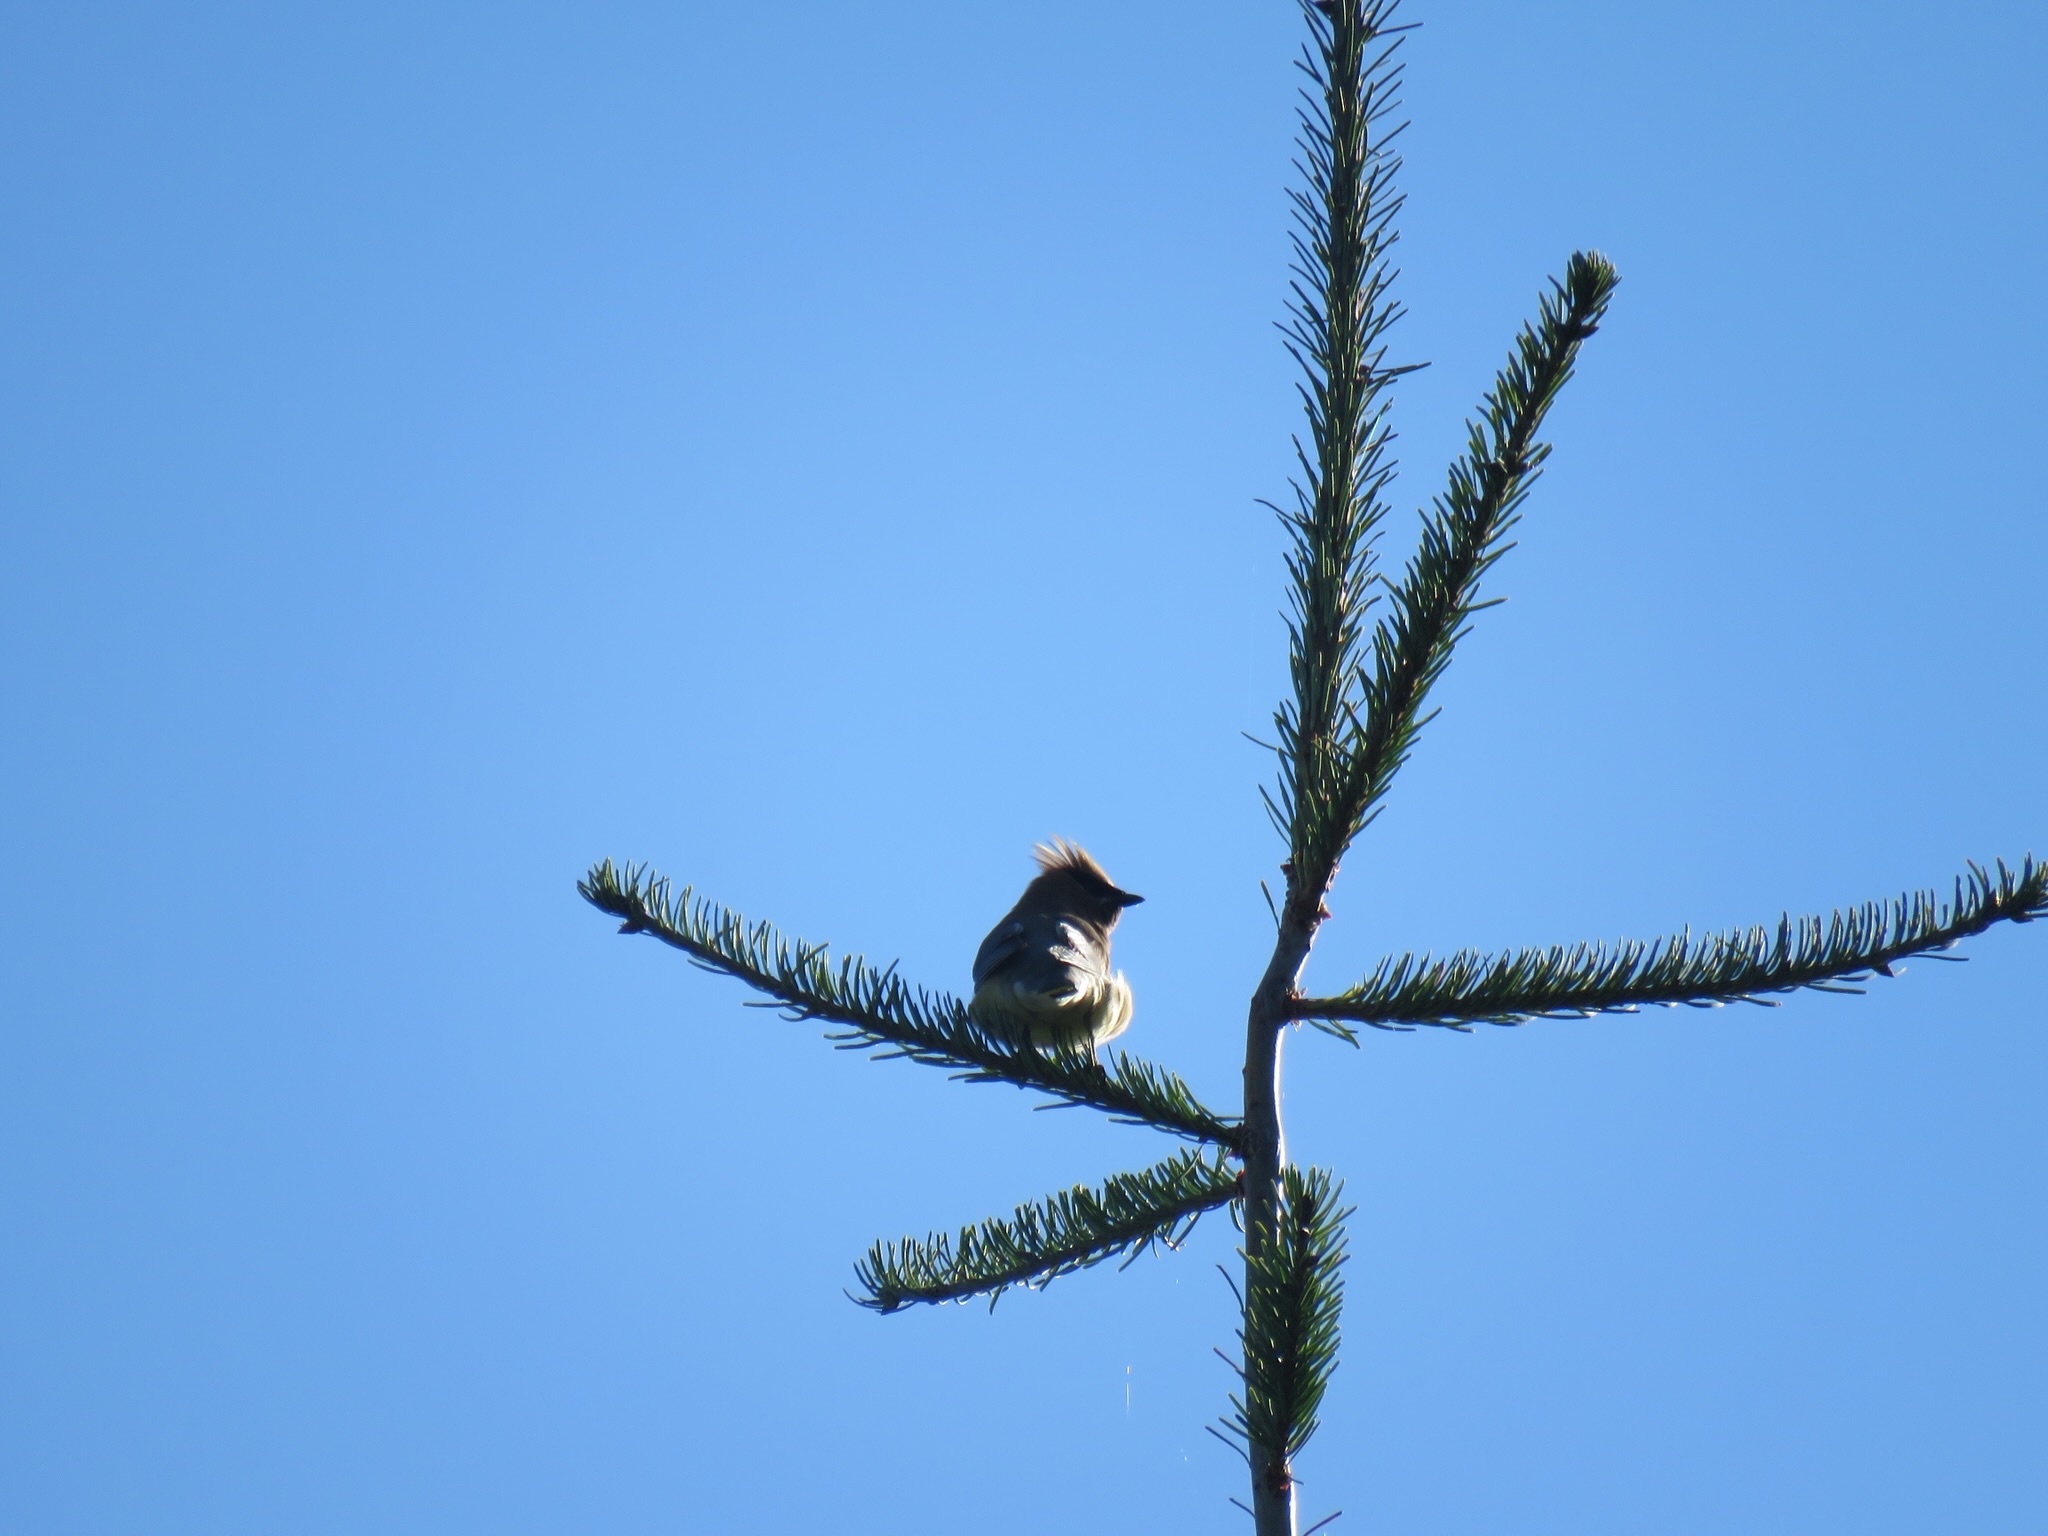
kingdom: Animalia
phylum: Chordata
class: Aves
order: Passeriformes
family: Bombycillidae
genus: Bombycilla
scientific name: Bombycilla cedrorum
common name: Cedar waxwing
